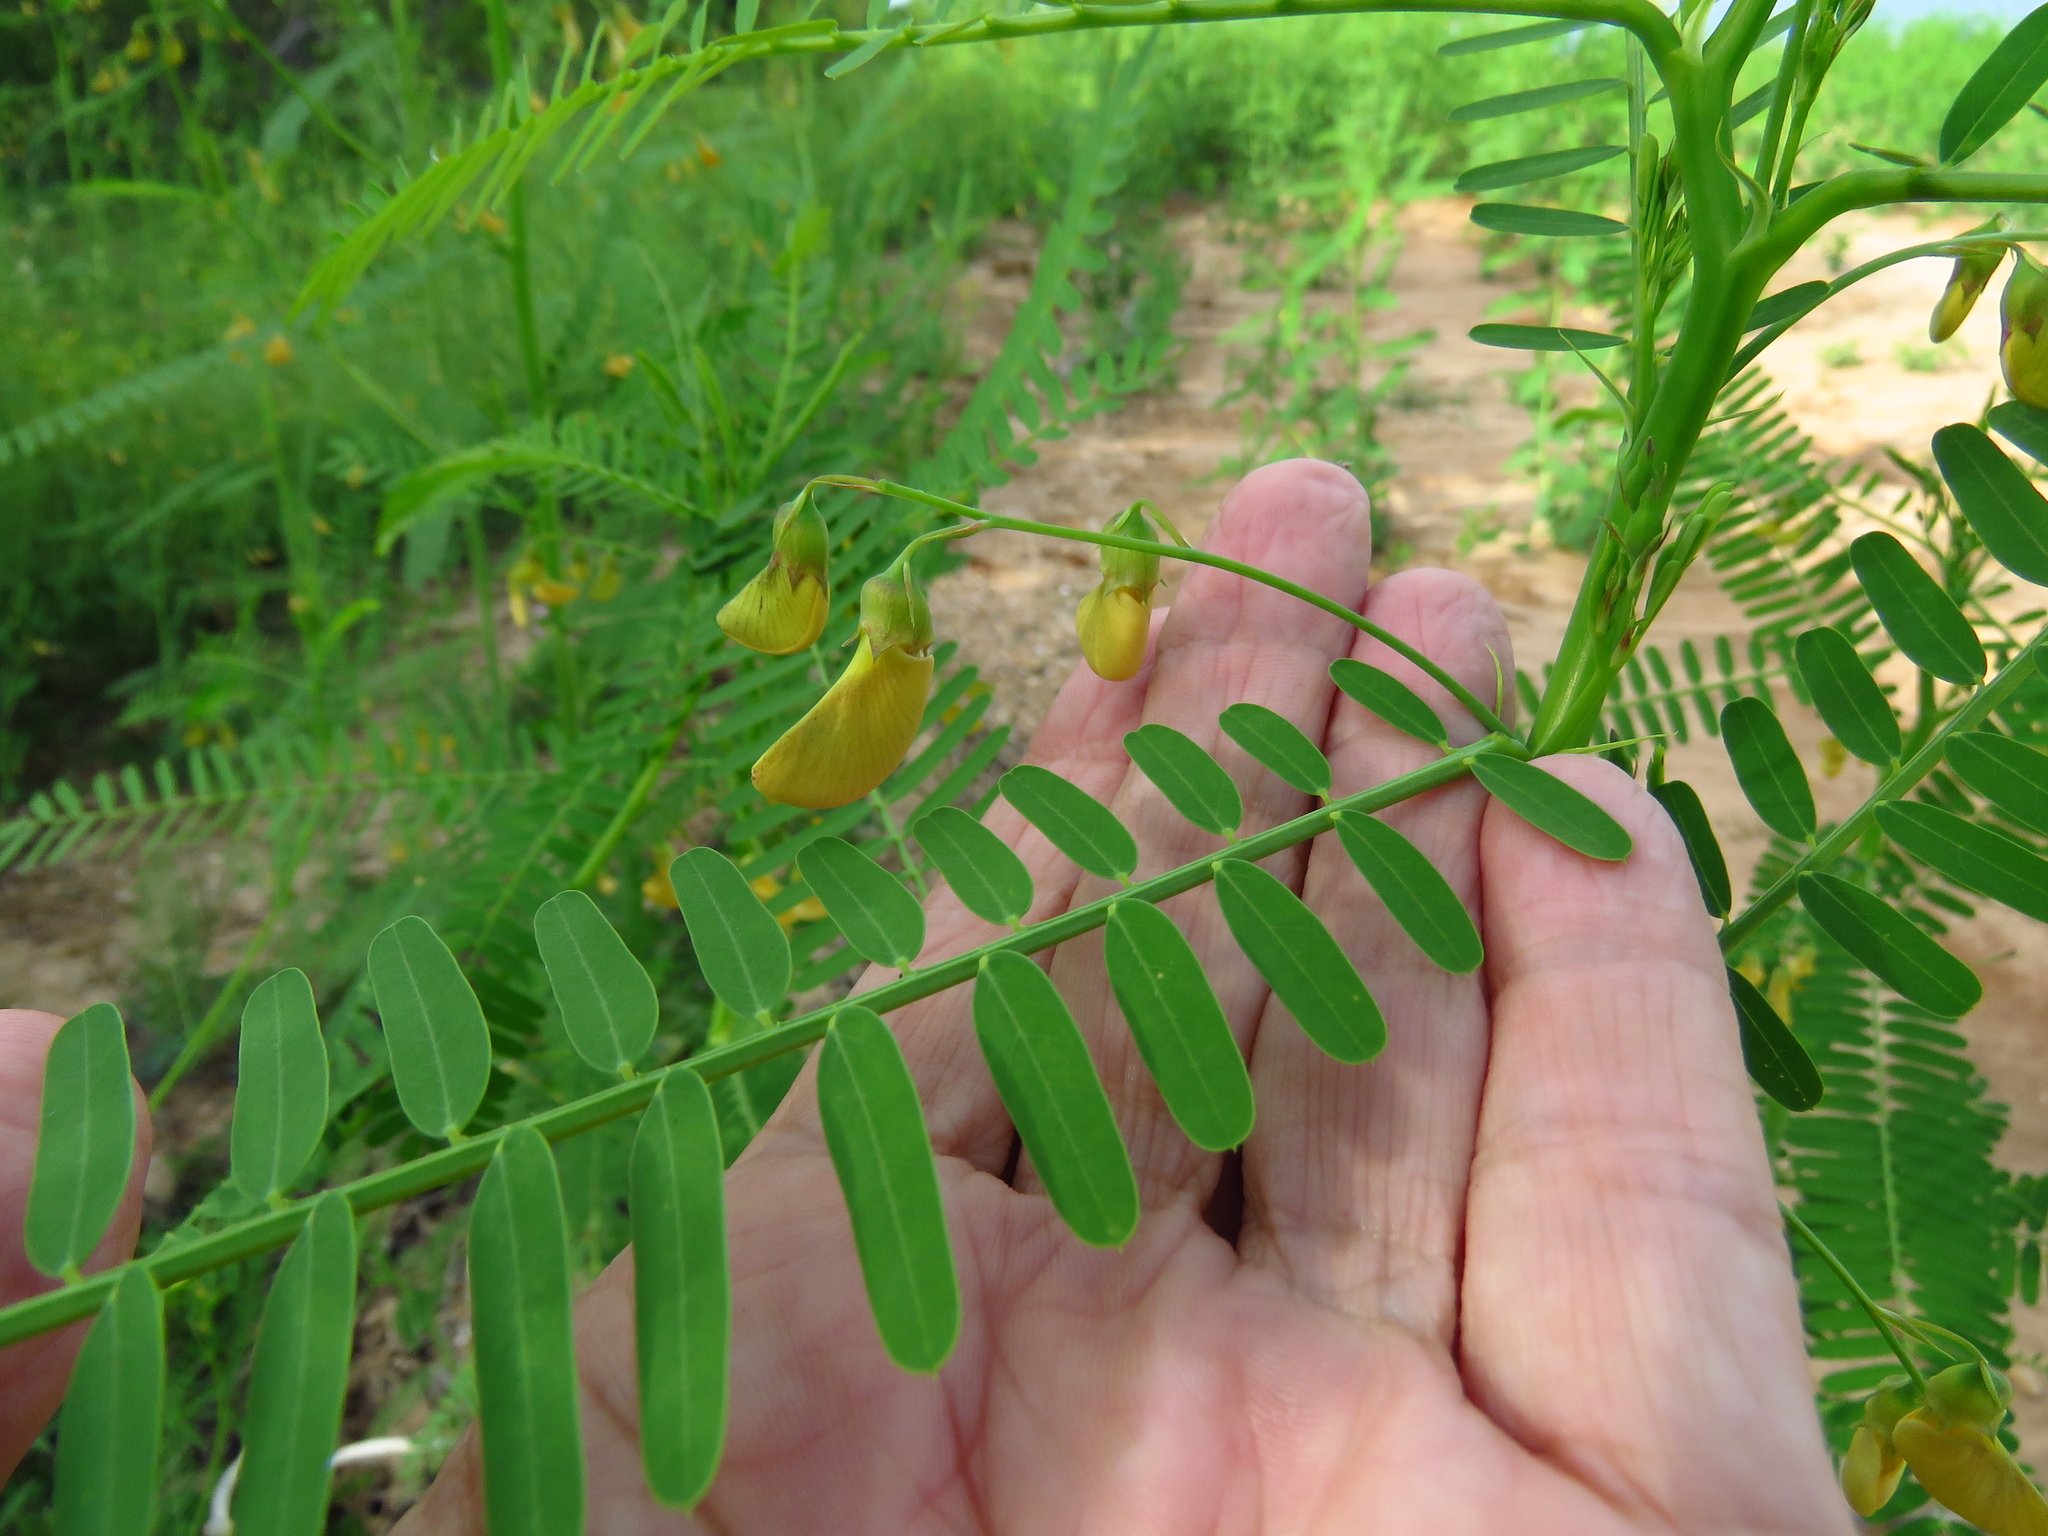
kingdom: Plantae
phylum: Tracheophyta
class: Magnoliopsida
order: Fabales
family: Fabaceae
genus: Sesbania
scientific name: Sesbania herbacea
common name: Bigpod sesbania
